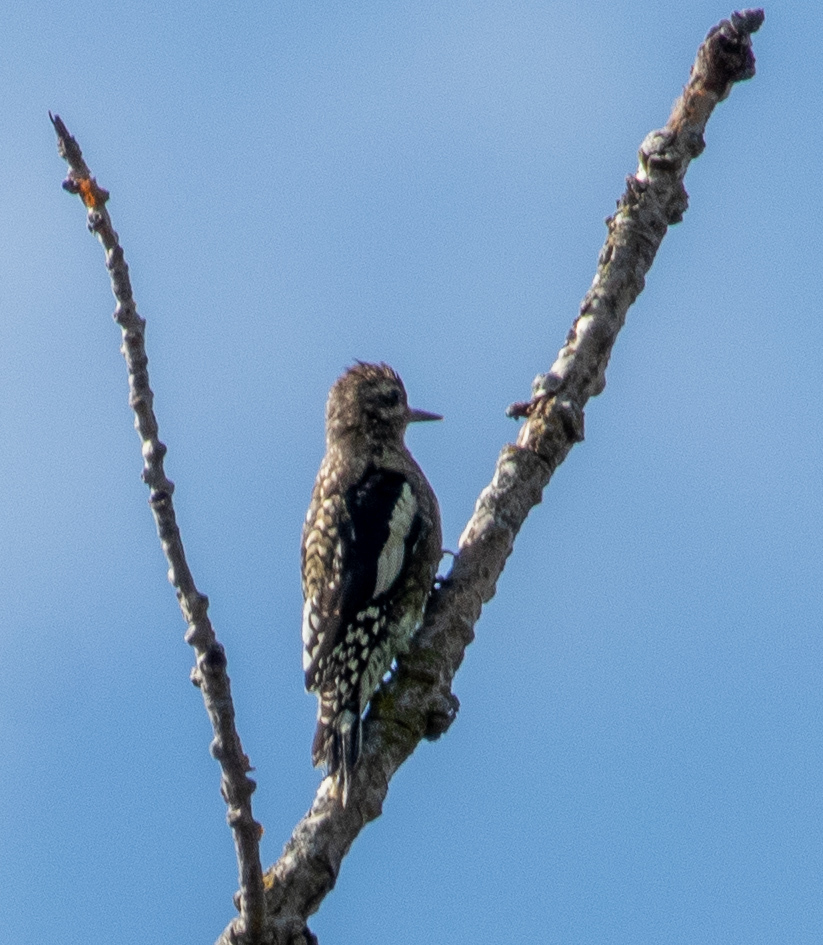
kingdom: Animalia
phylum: Chordata
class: Aves
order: Piciformes
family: Picidae
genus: Sphyrapicus
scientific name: Sphyrapicus varius
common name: Yellow-bellied sapsucker
